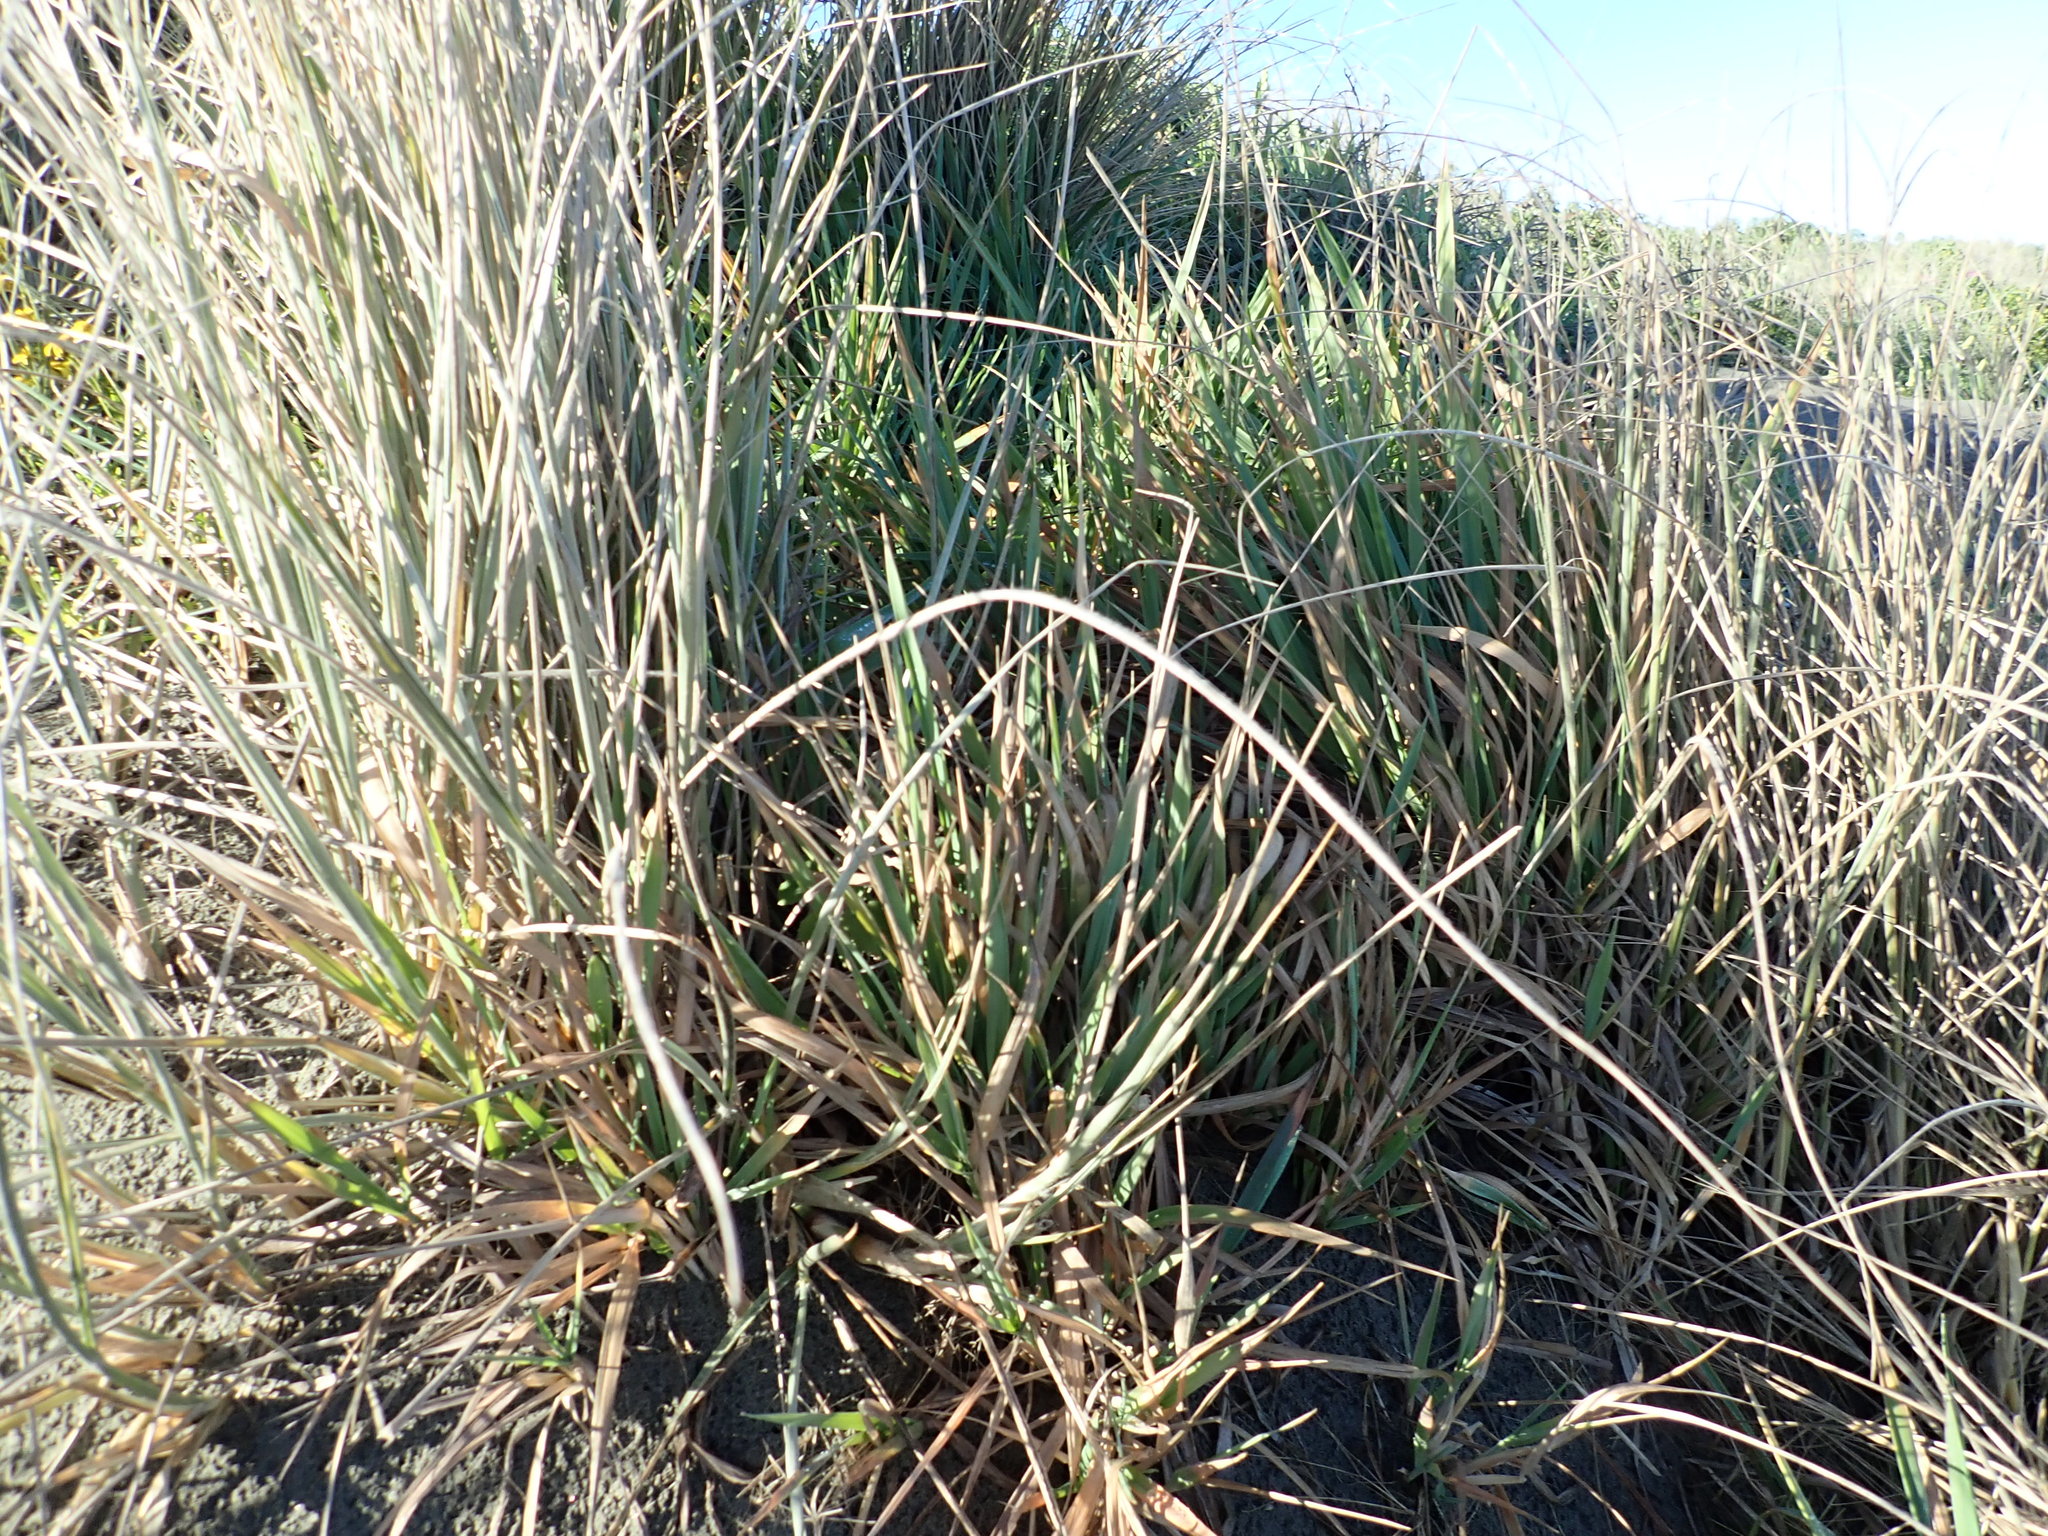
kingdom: Plantae
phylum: Tracheophyta
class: Liliopsida
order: Poales
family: Poaceae
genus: Lachnagrostis
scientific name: Lachnagrostis billardierei
